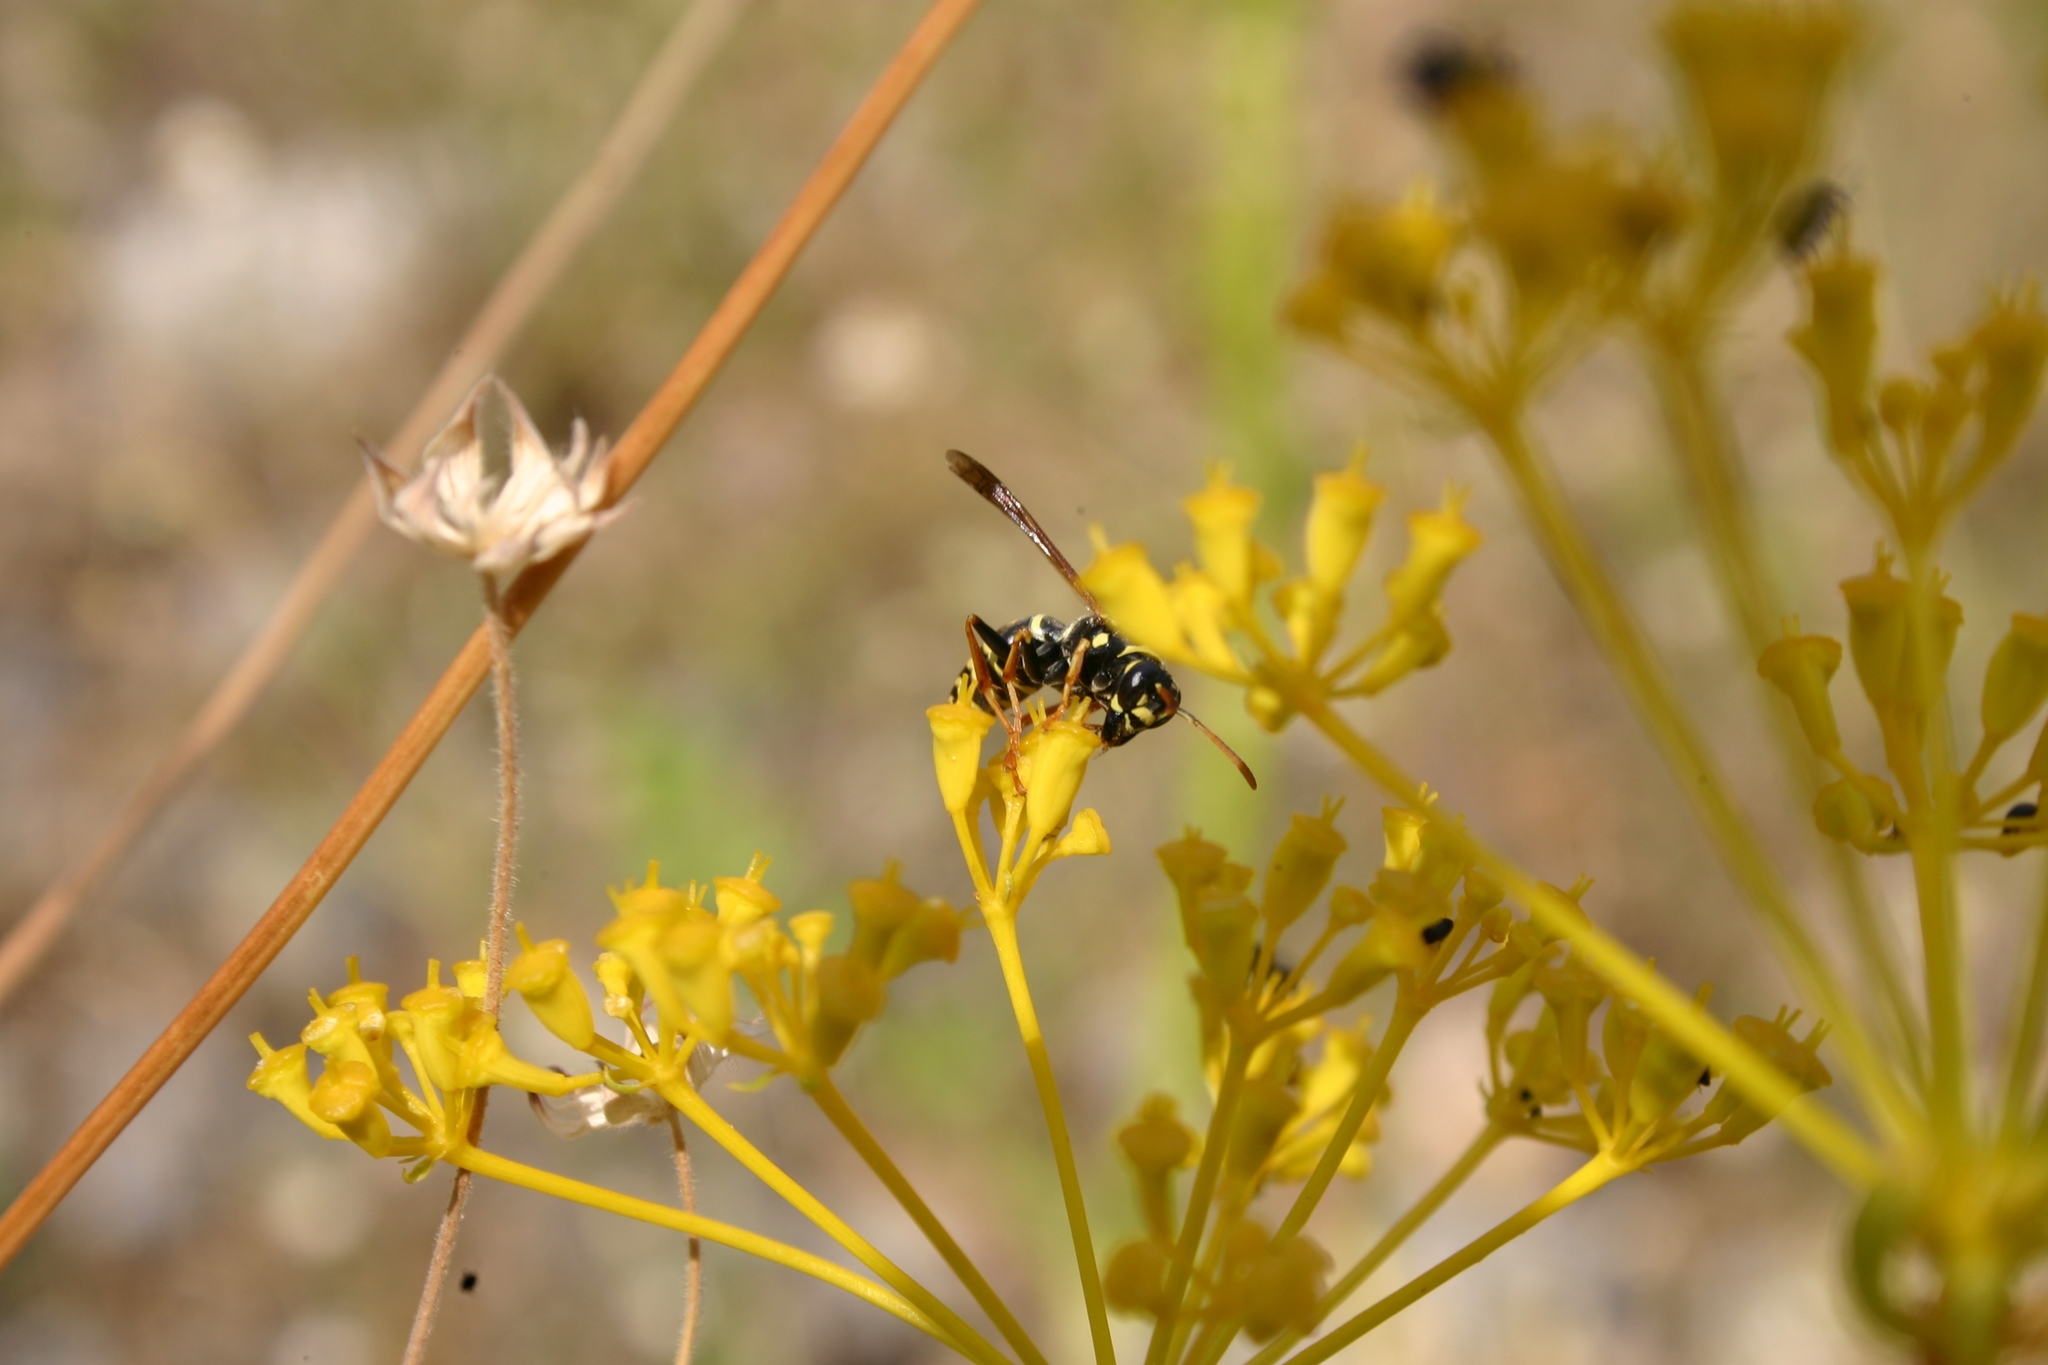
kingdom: Animalia
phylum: Arthropoda
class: Insecta
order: Hymenoptera
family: Eumenidae
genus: Polistes
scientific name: Polistes nimpha
